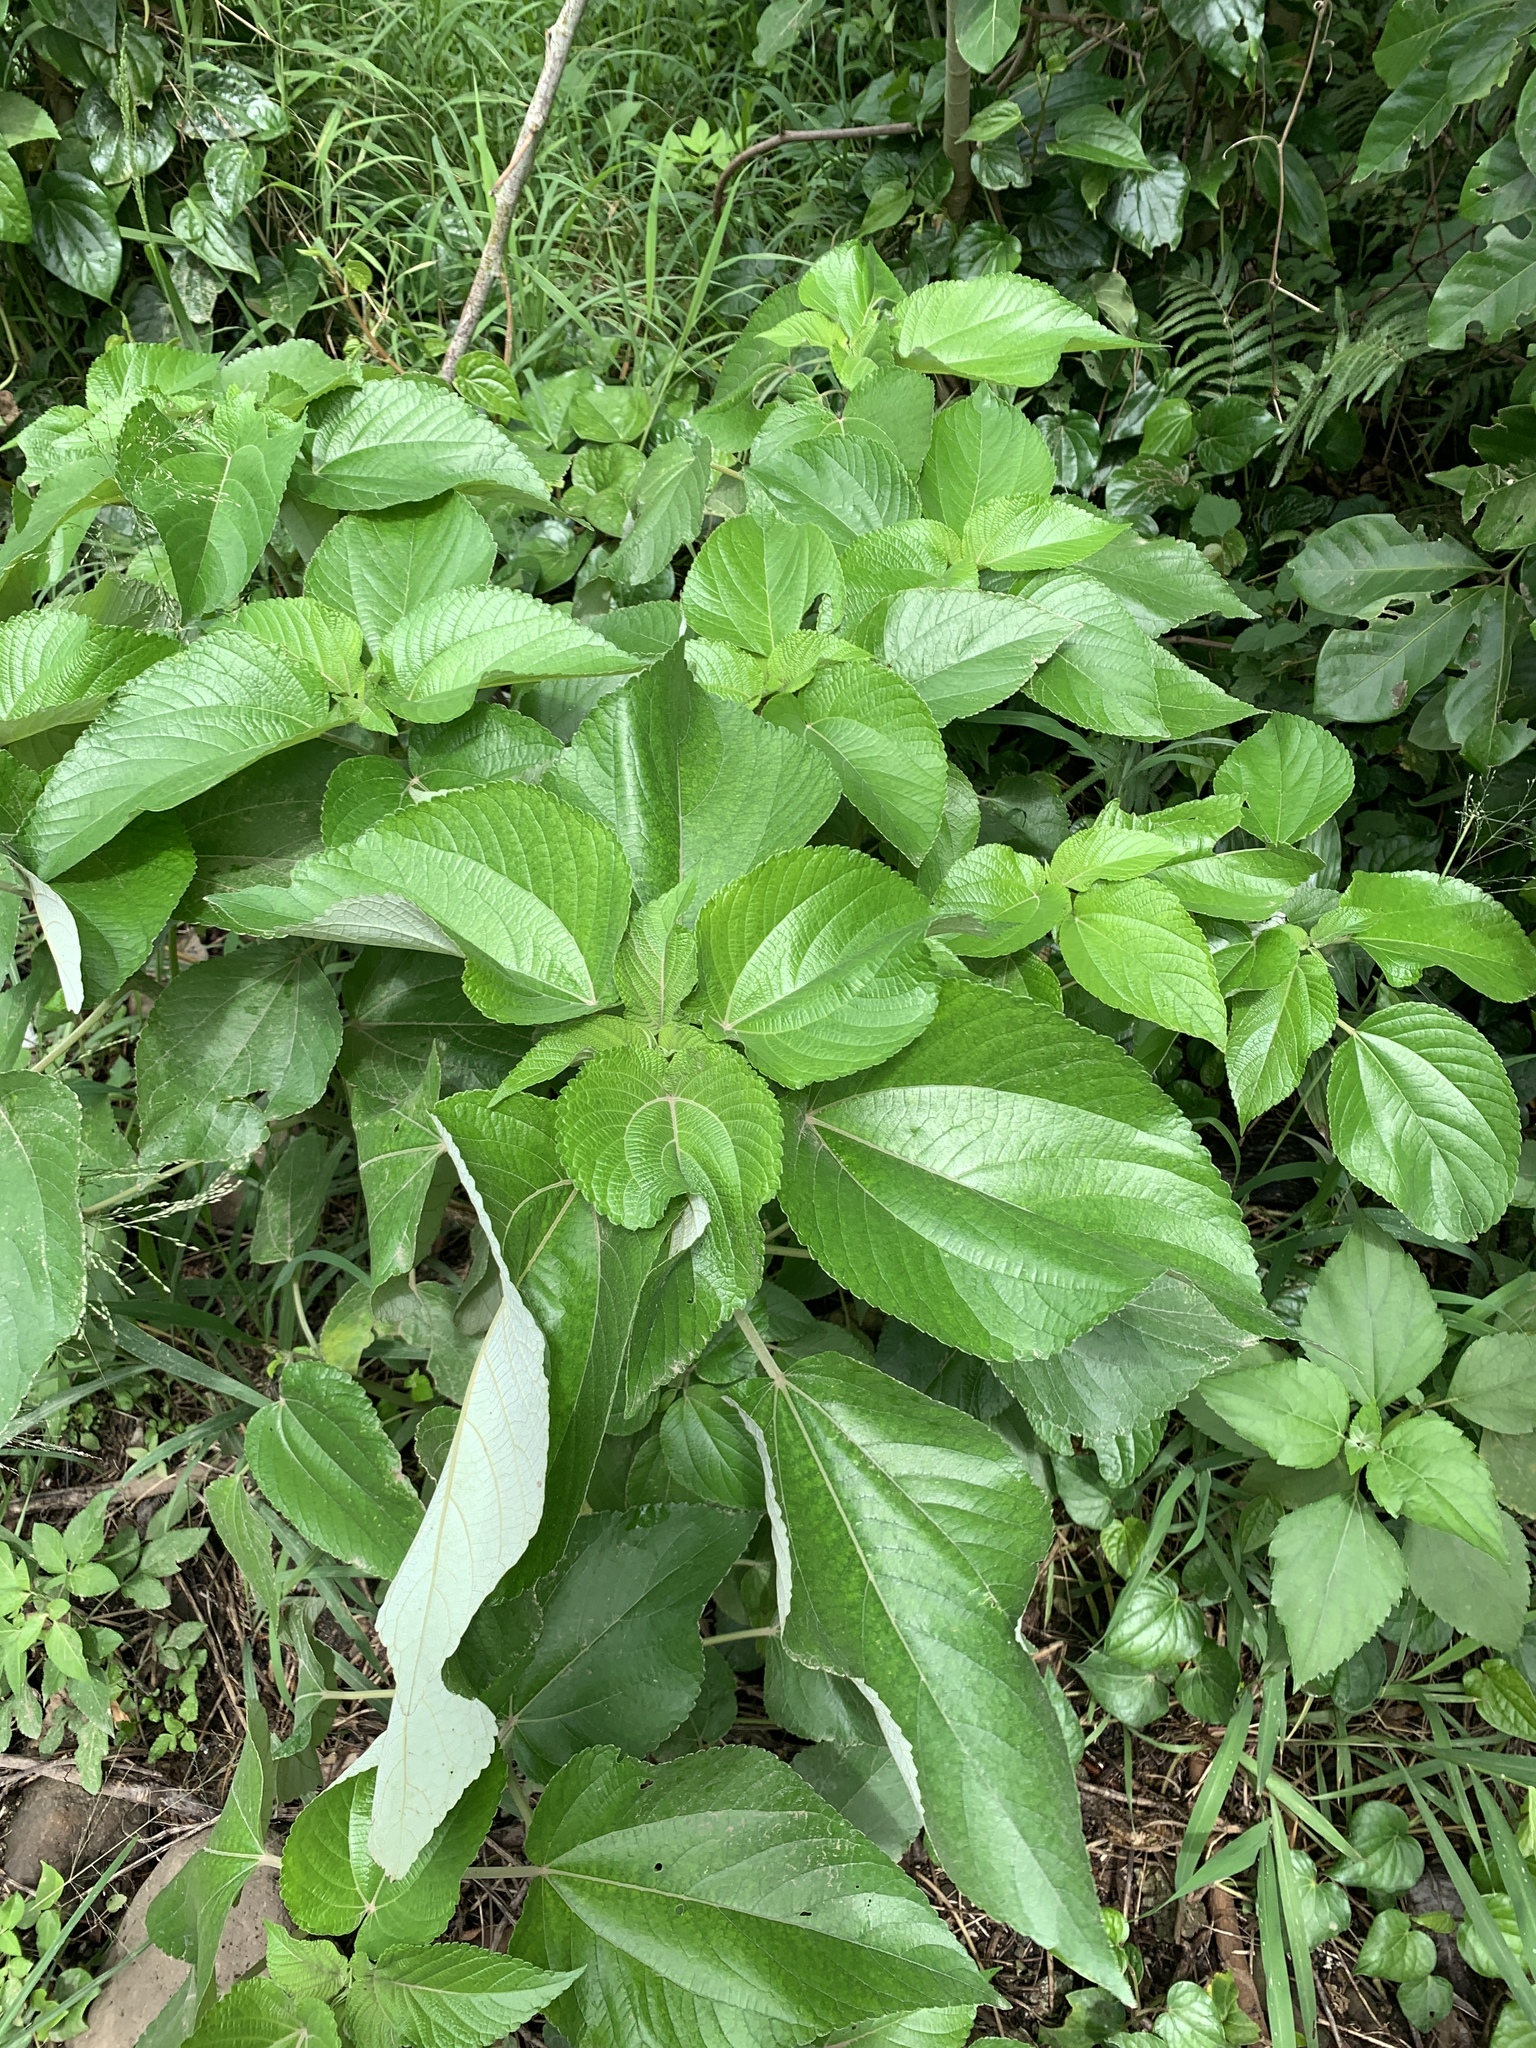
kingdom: Plantae
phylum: Tracheophyta
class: Magnoliopsida
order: Rosales
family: Urticaceae
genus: Pipturus
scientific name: Pipturus arborescens
